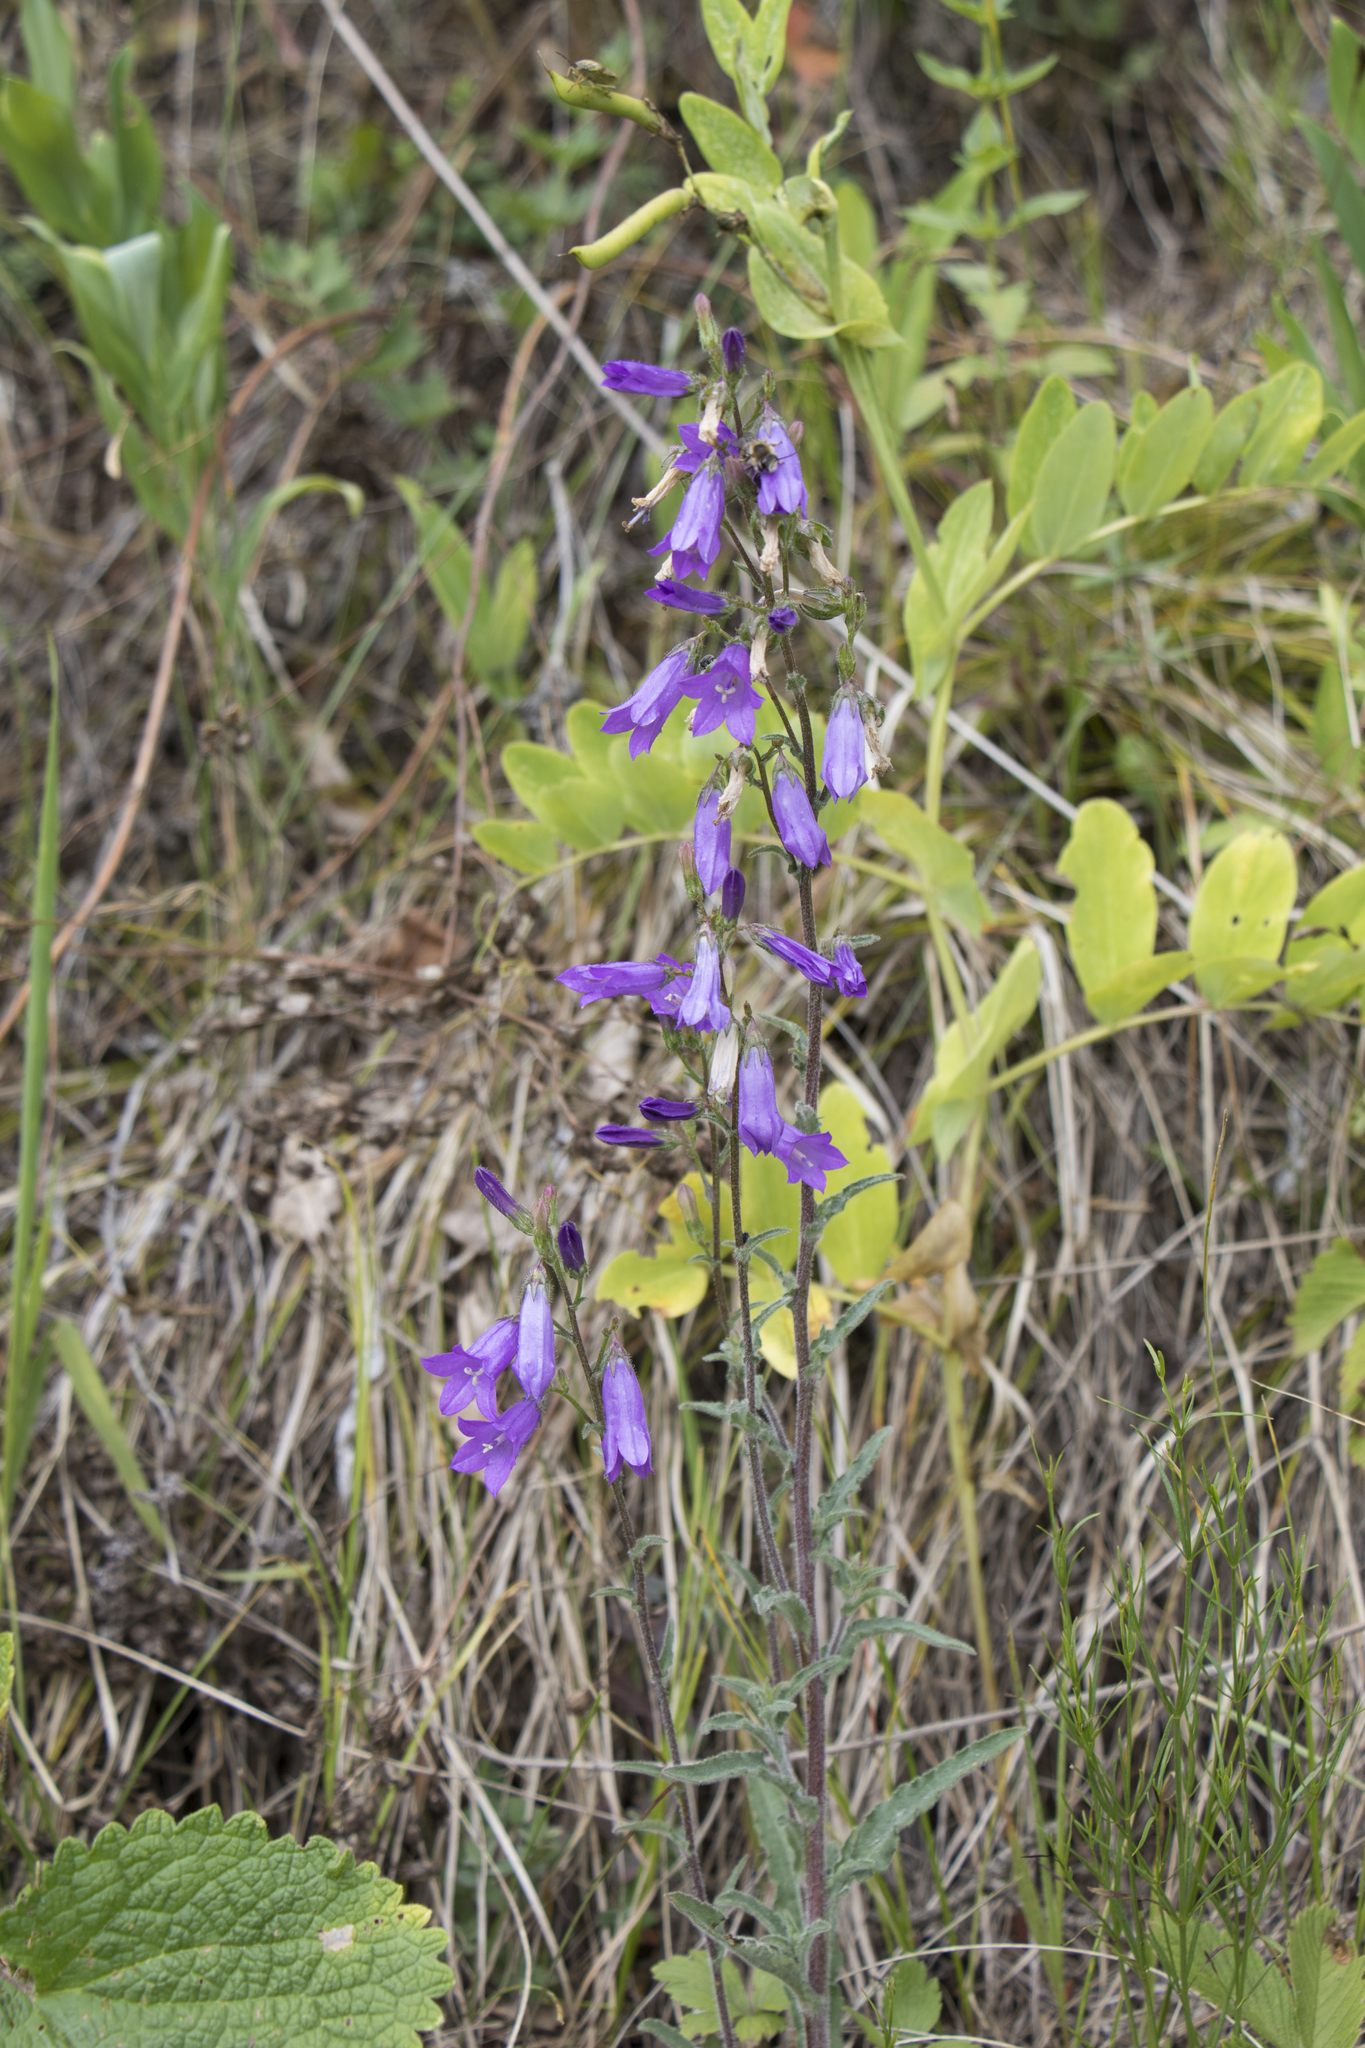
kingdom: Plantae
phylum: Tracheophyta
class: Magnoliopsida
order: Asterales
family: Campanulaceae
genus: Campanula
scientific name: Campanula sibirica
